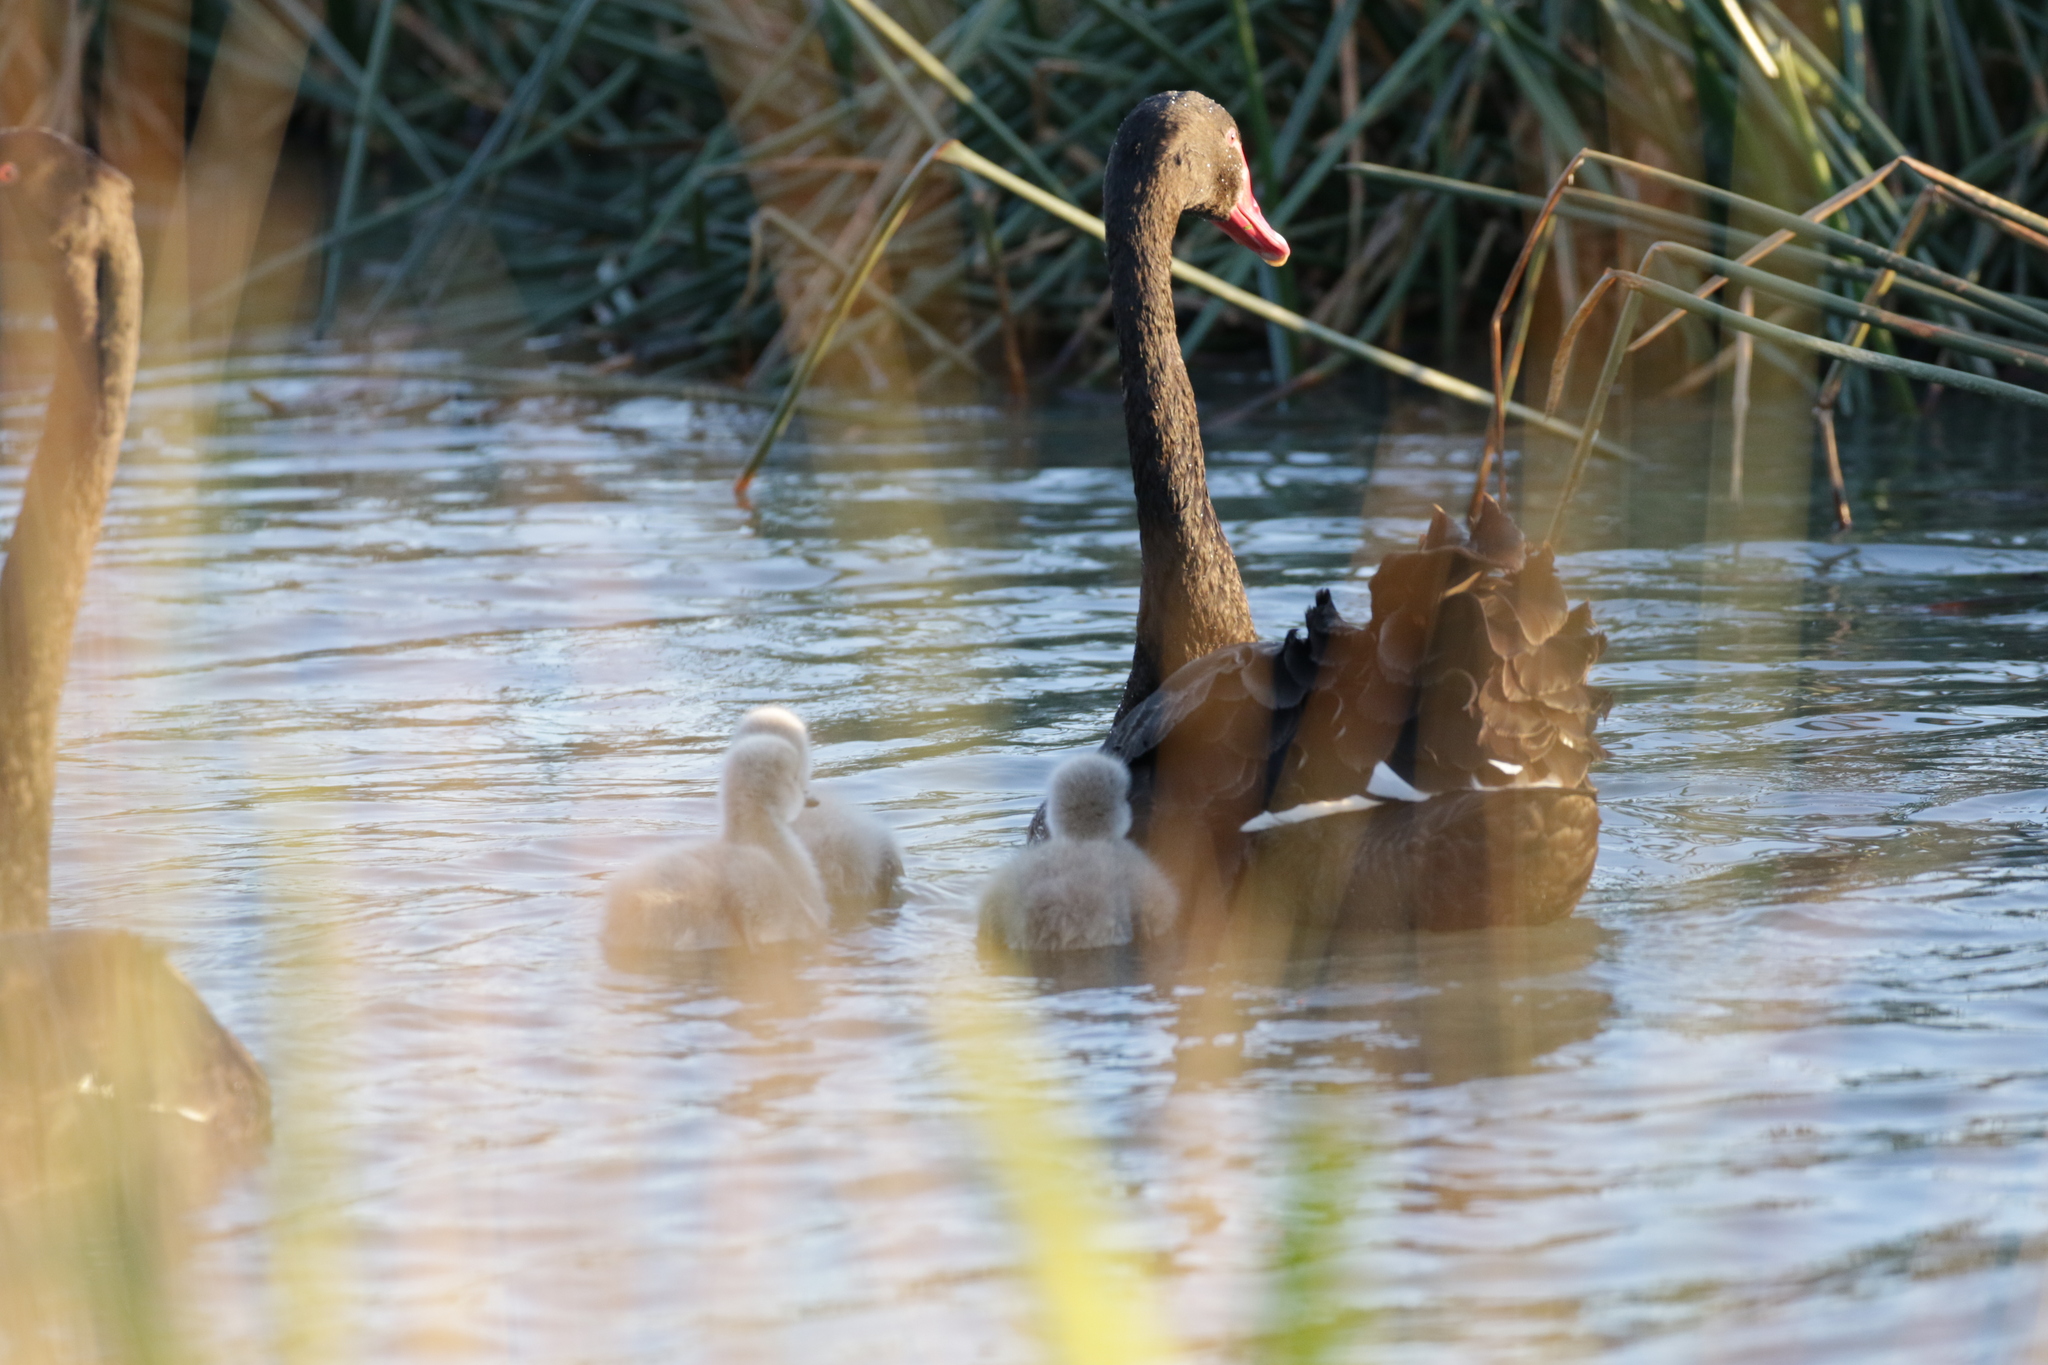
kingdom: Animalia
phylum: Chordata
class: Aves
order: Anseriformes
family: Anatidae
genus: Cygnus
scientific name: Cygnus atratus
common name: Black swan
